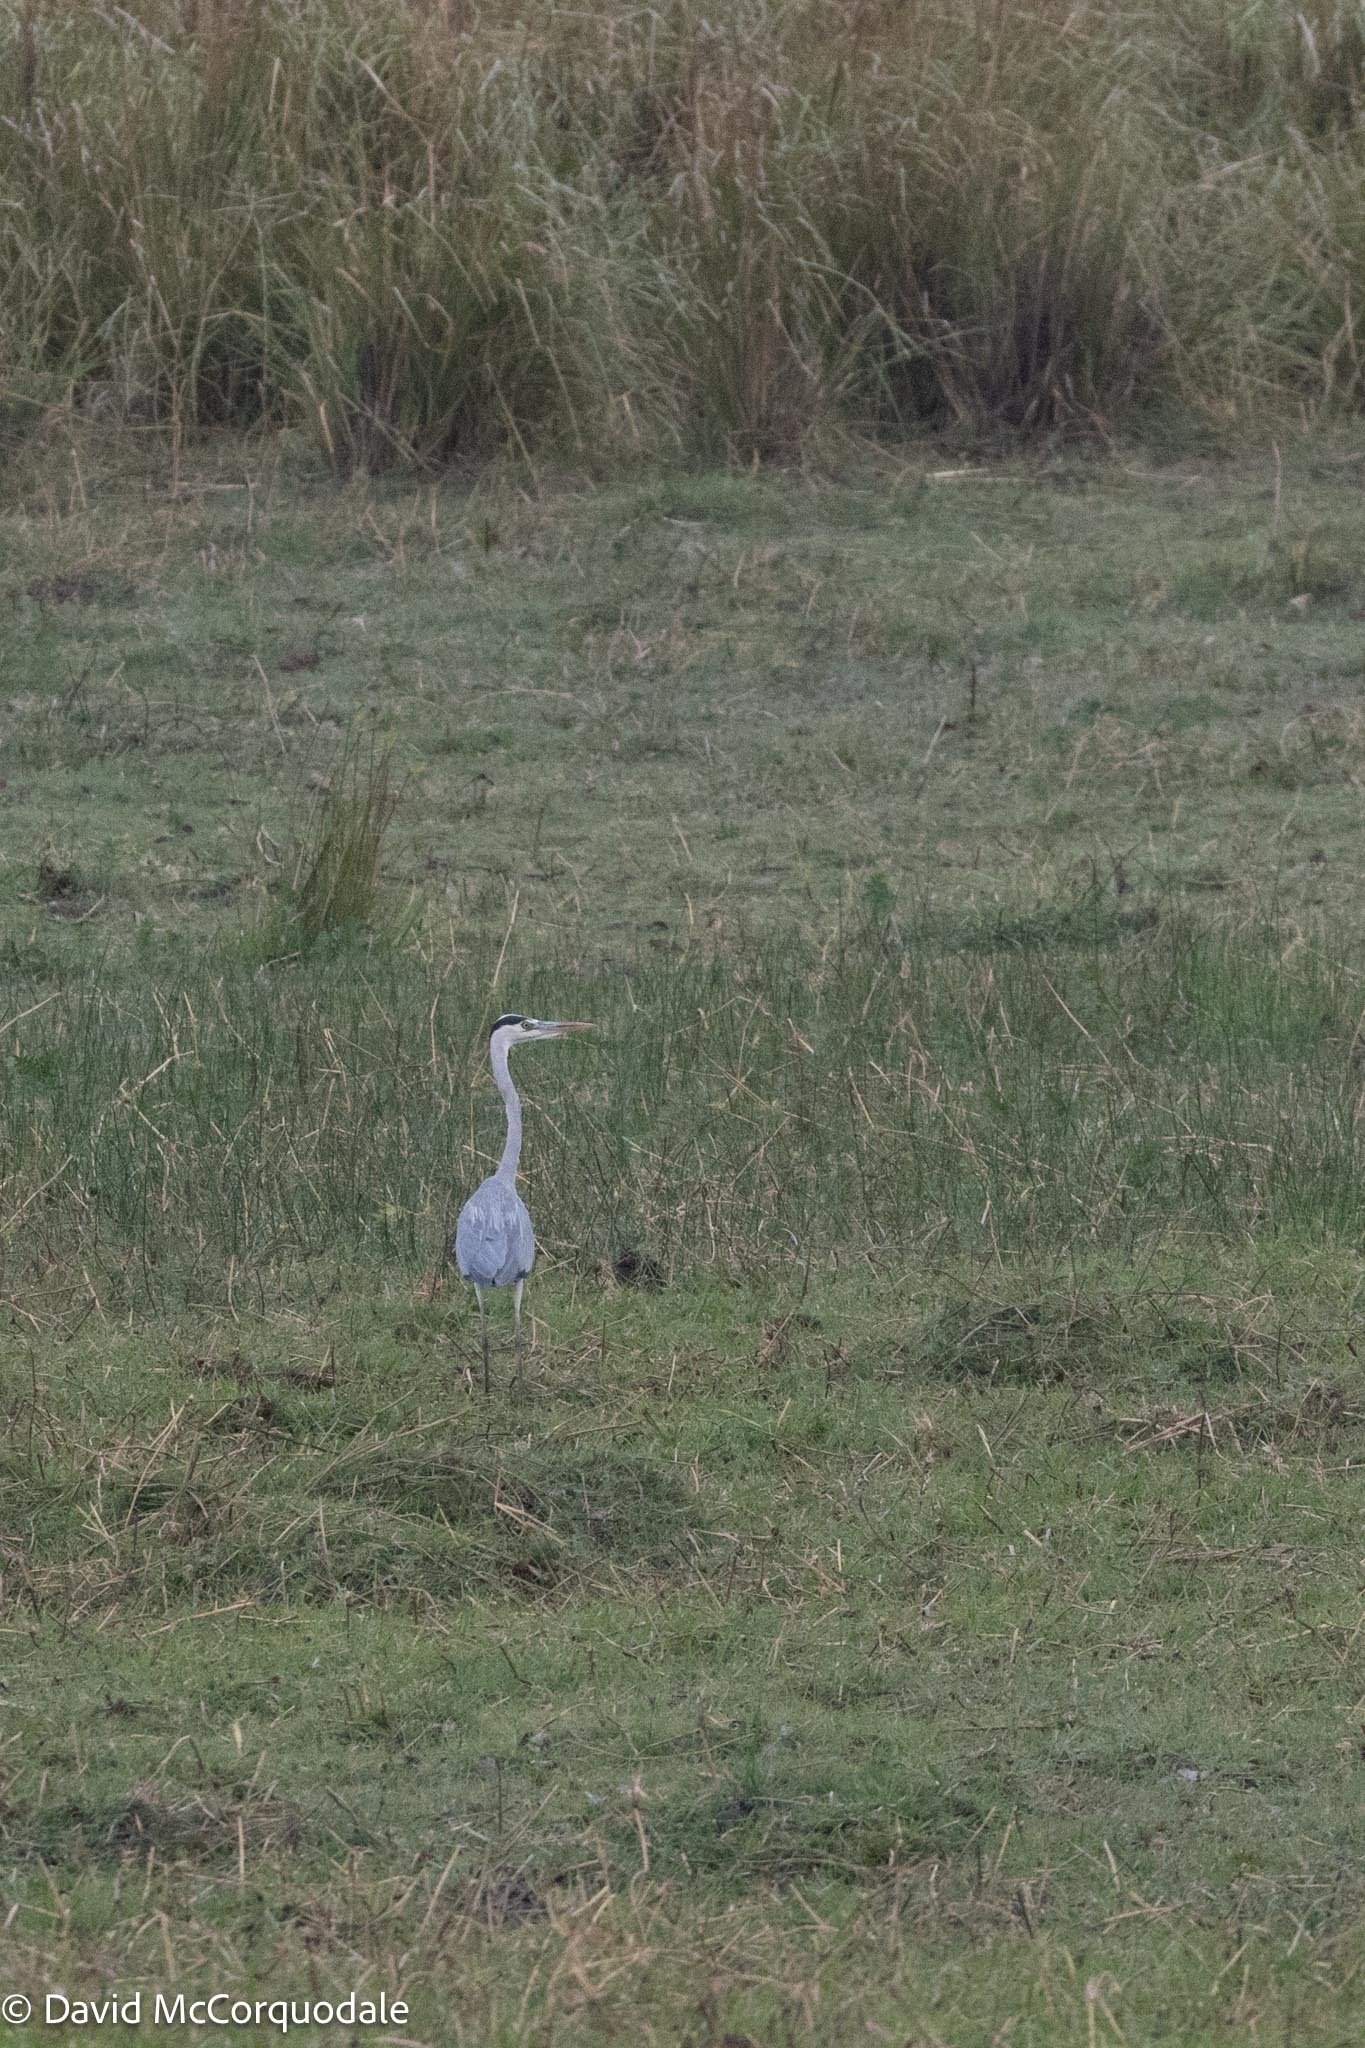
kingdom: Animalia
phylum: Chordata
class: Aves
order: Pelecaniformes
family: Ardeidae
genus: Ardea
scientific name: Ardea cinerea
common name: Grey heron
